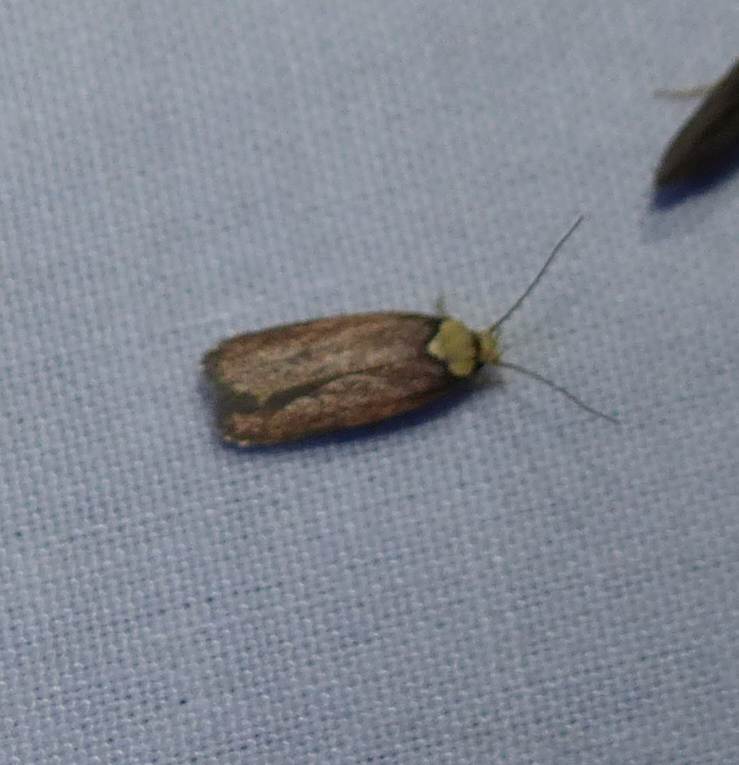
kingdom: Animalia
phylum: Arthropoda
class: Insecta
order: Lepidoptera
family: Depressariidae
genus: Depressaria
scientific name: Depressaria depressana
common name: Lost flat-body
